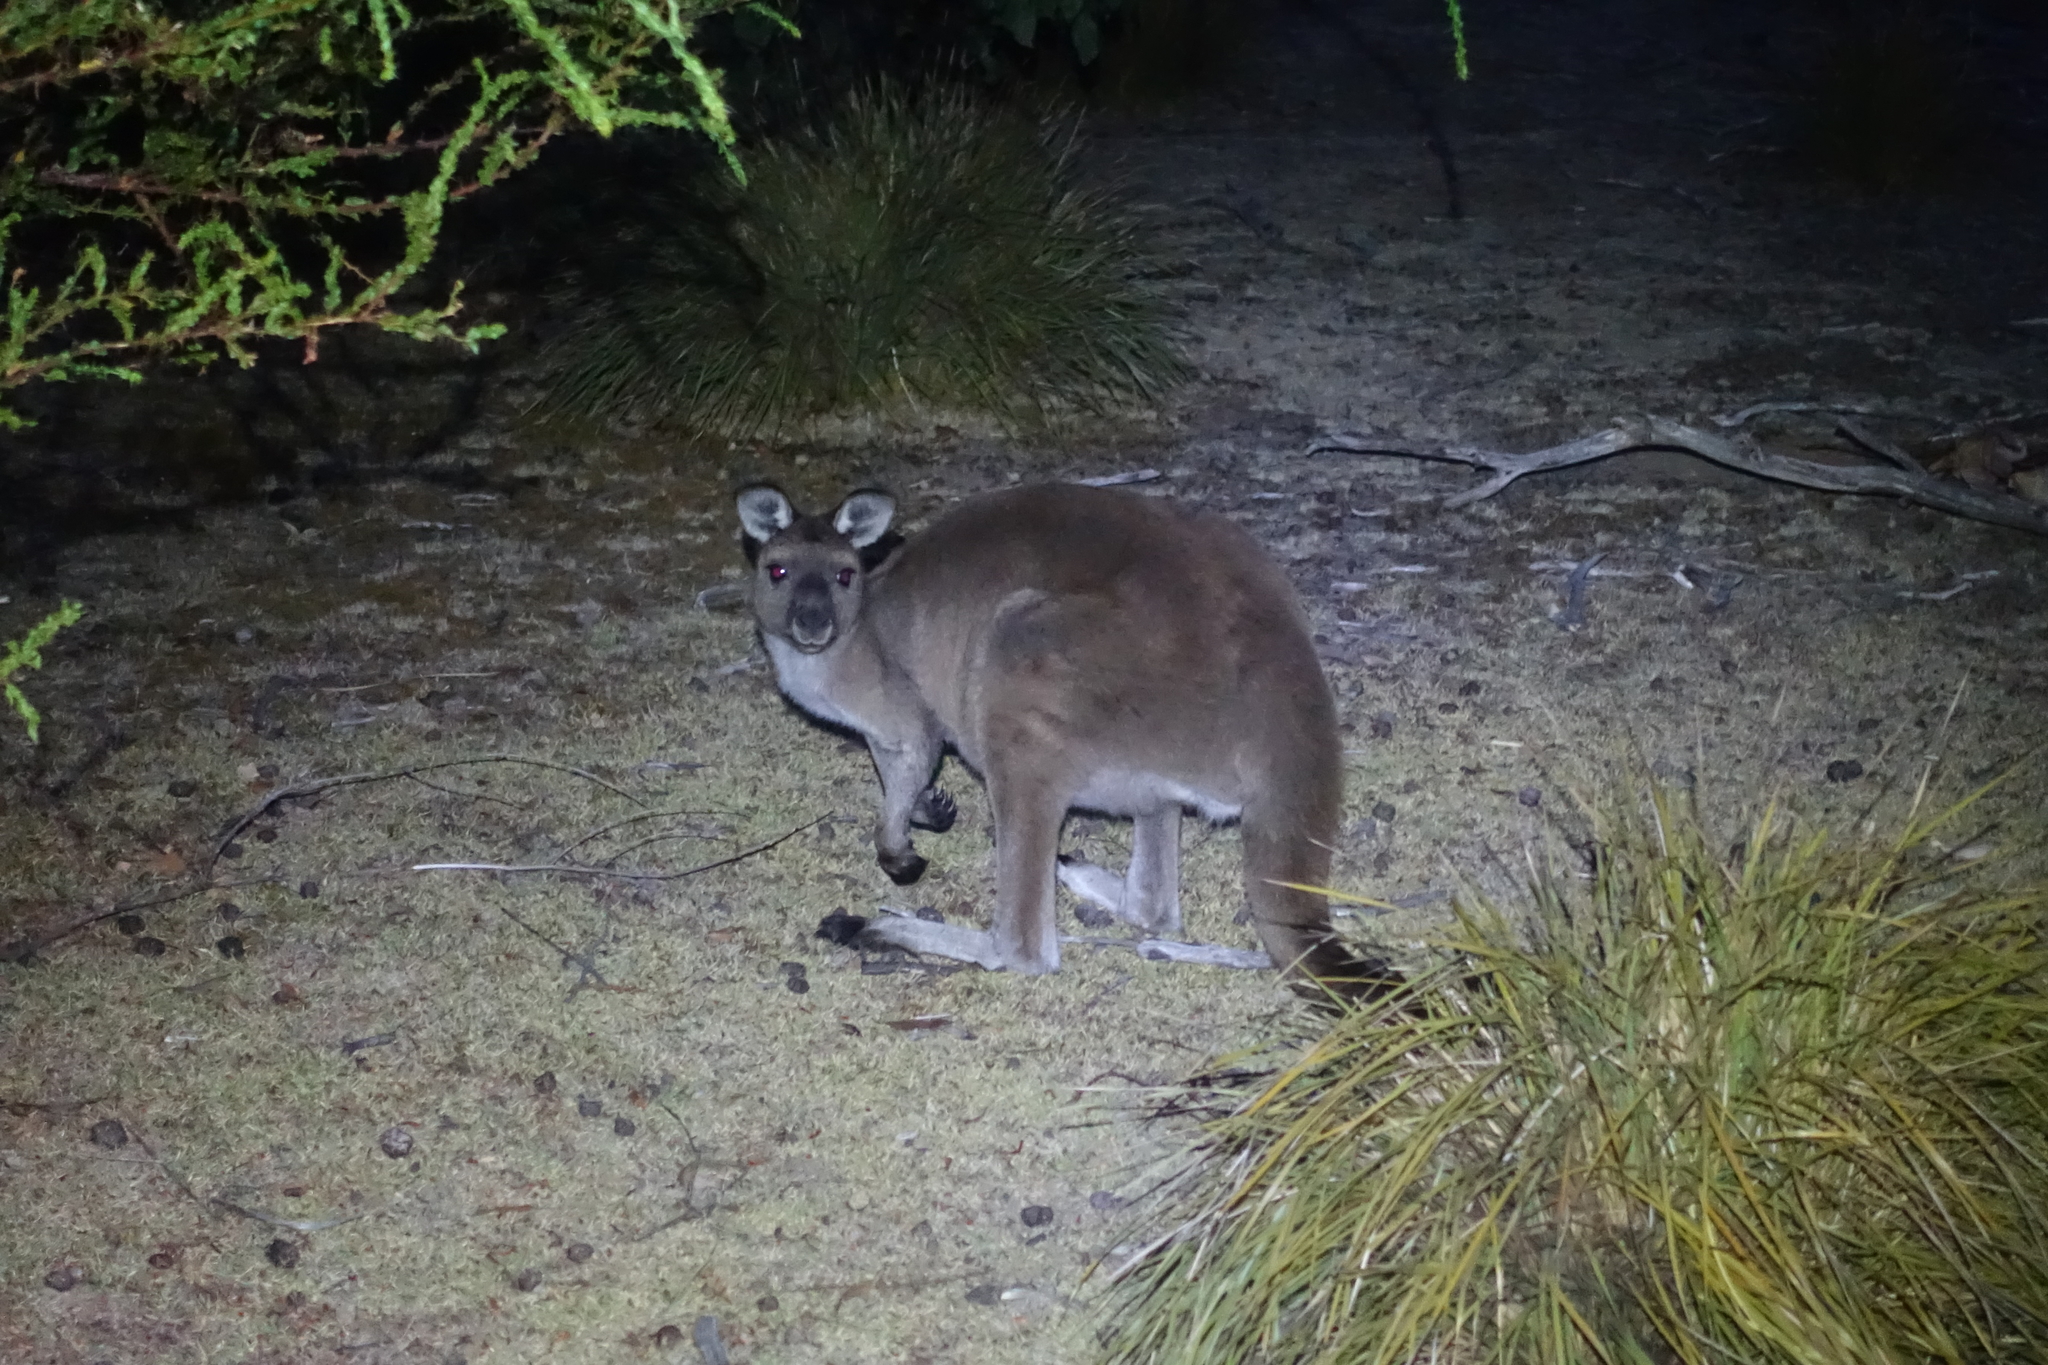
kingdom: Animalia
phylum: Chordata
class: Mammalia
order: Diprotodontia
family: Macropodidae
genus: Macropus
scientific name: Macropus fuliginosus
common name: Western grey kangaroo
